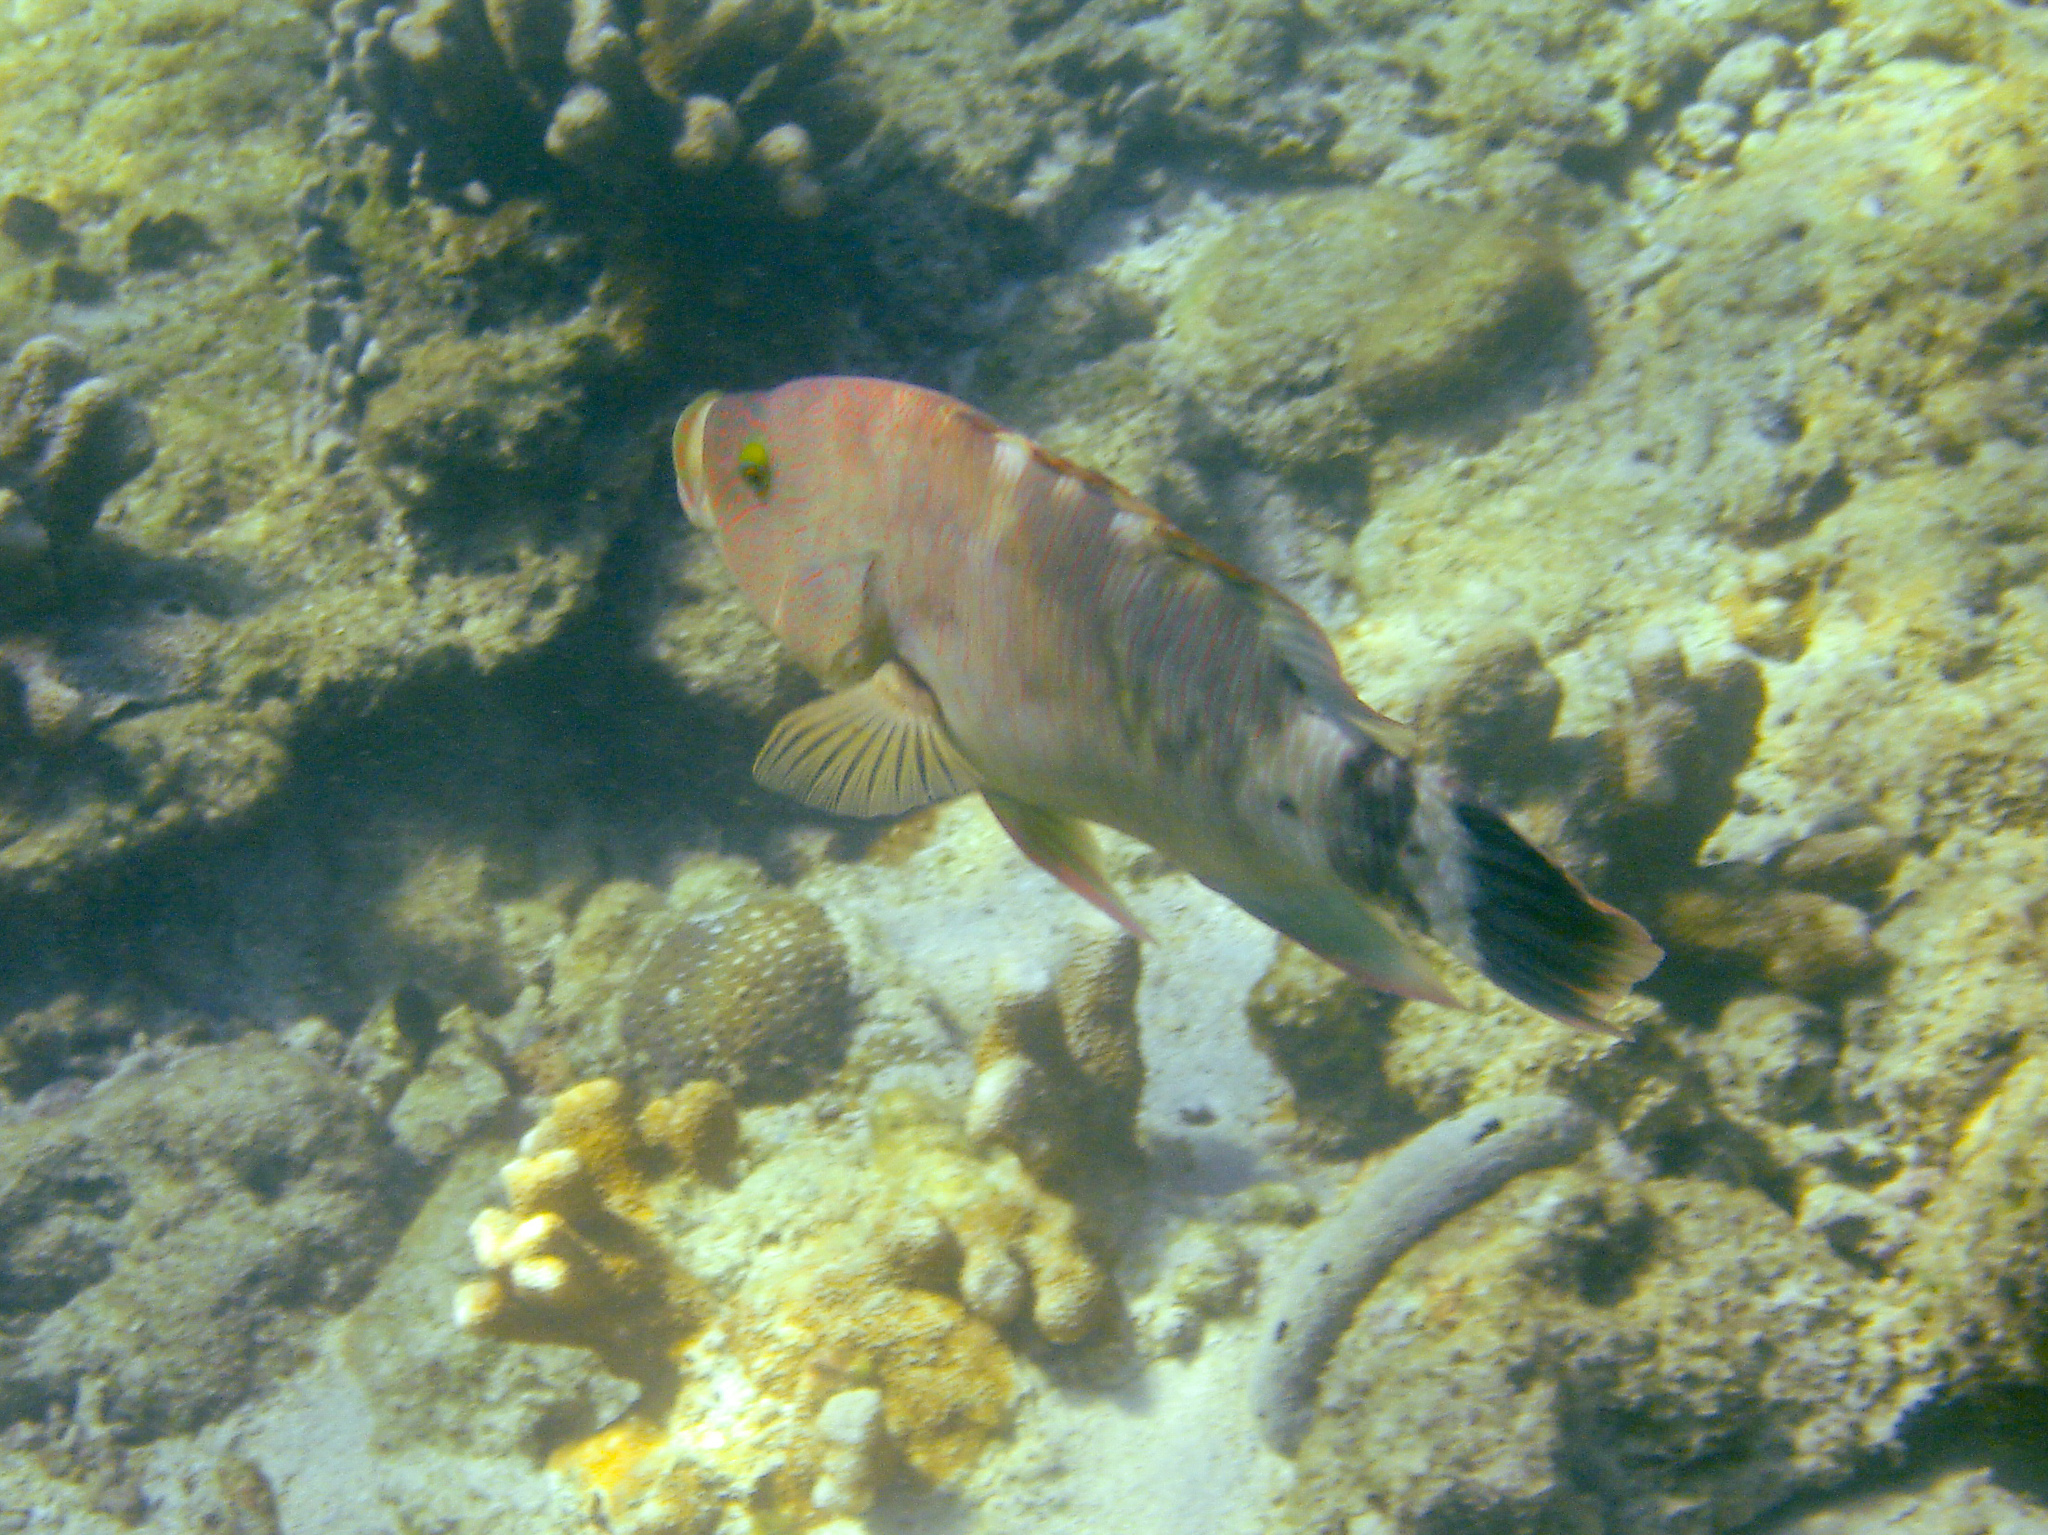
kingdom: Animalia
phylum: Chordata
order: Perciformes
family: Labridae
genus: Cheilinus
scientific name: Cheilinus trilobatus
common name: Tripletail maori wrasse
